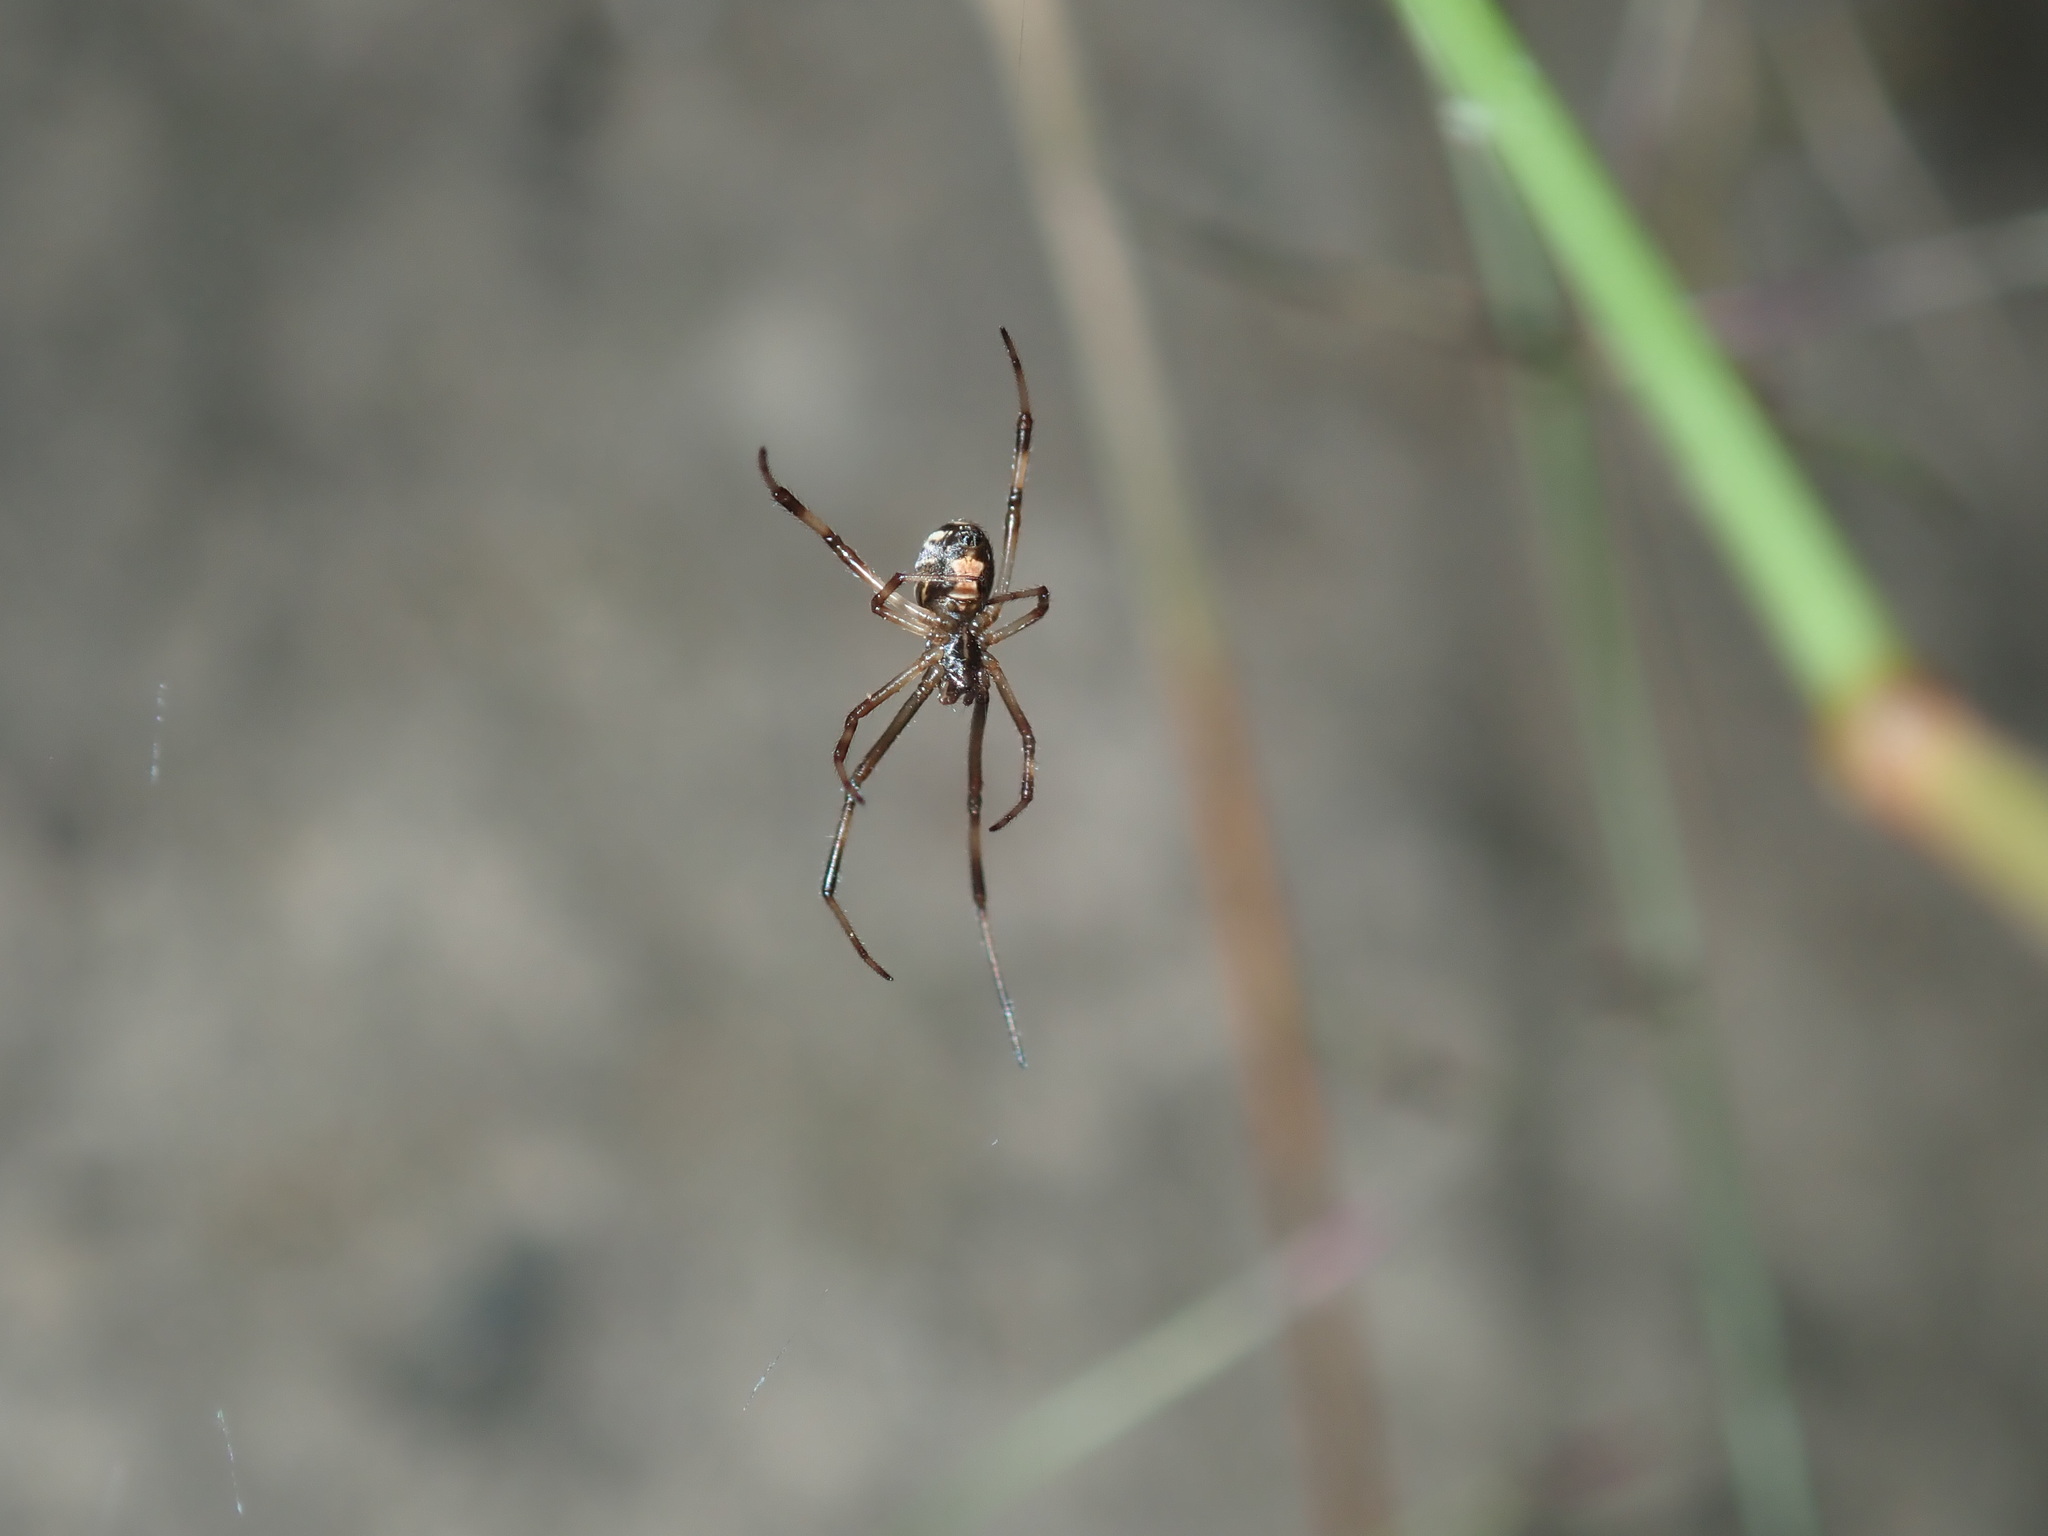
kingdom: Animalia
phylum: Arthropoda
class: Arachnida
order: Araneae
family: Theridiidae
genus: Latrodectus
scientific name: Latrodectus hasselti
